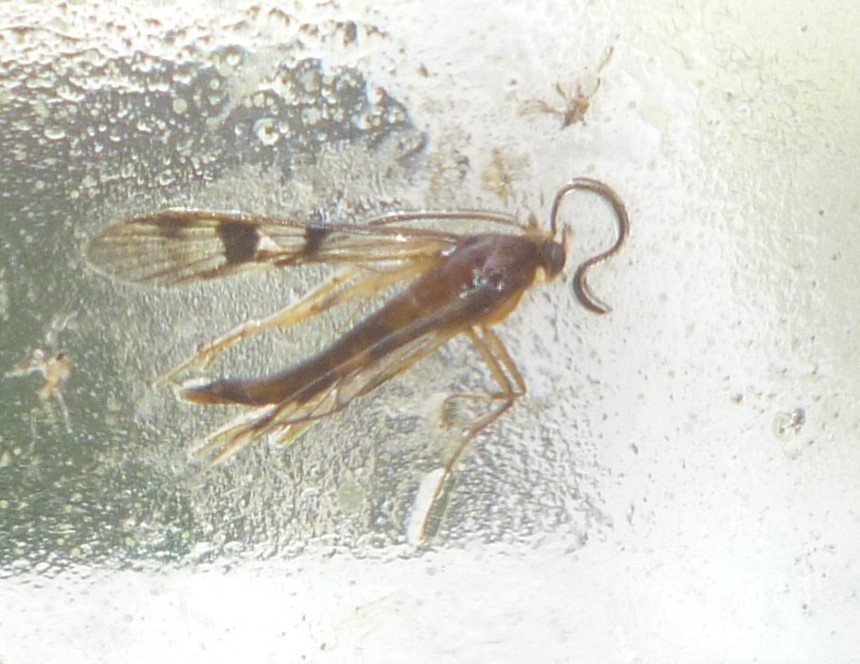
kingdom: Animalia
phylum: Arthropoda
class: Insecta
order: Lepidoptera
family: Sesiidae
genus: Synanthedon
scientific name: Synanthedon acerni
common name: Maple callus borer moth
